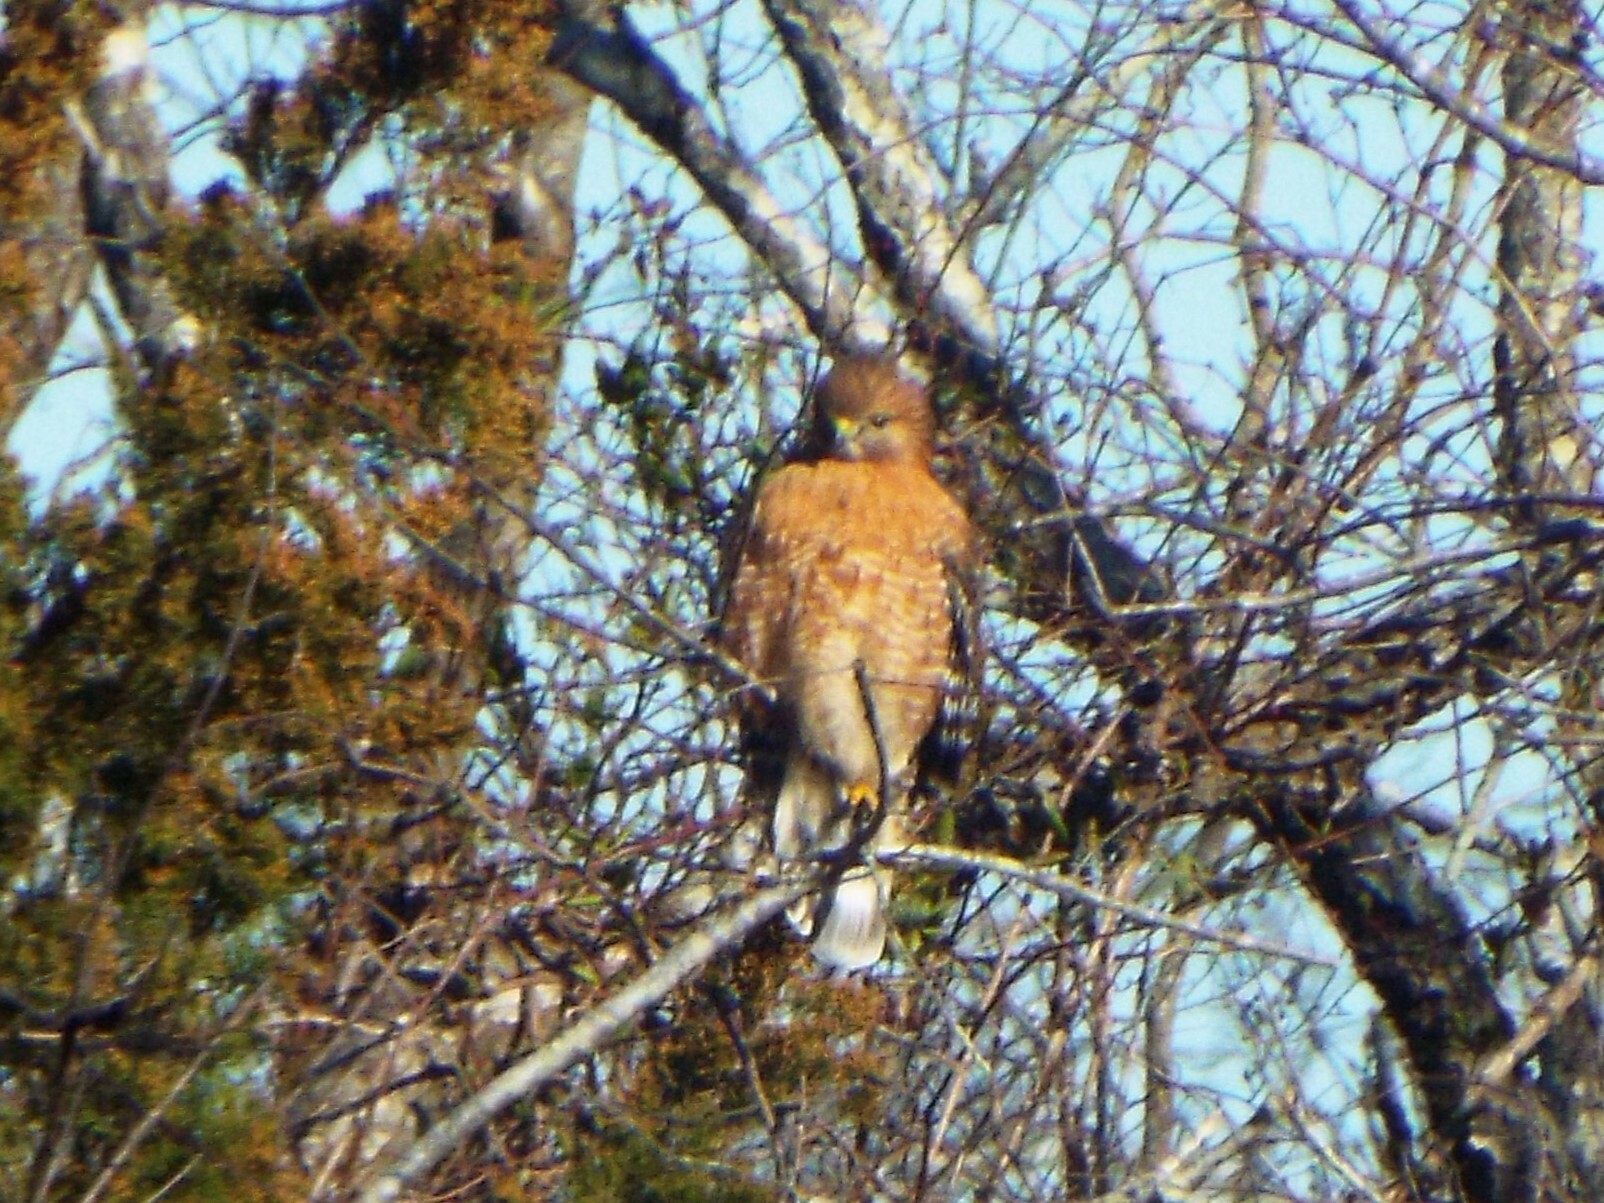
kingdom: Animalia
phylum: Chordata
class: Aves
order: Accipitriformes
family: Accipitridae
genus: Buteo
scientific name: Buteo lineatus
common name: Red-shouldered hawk
